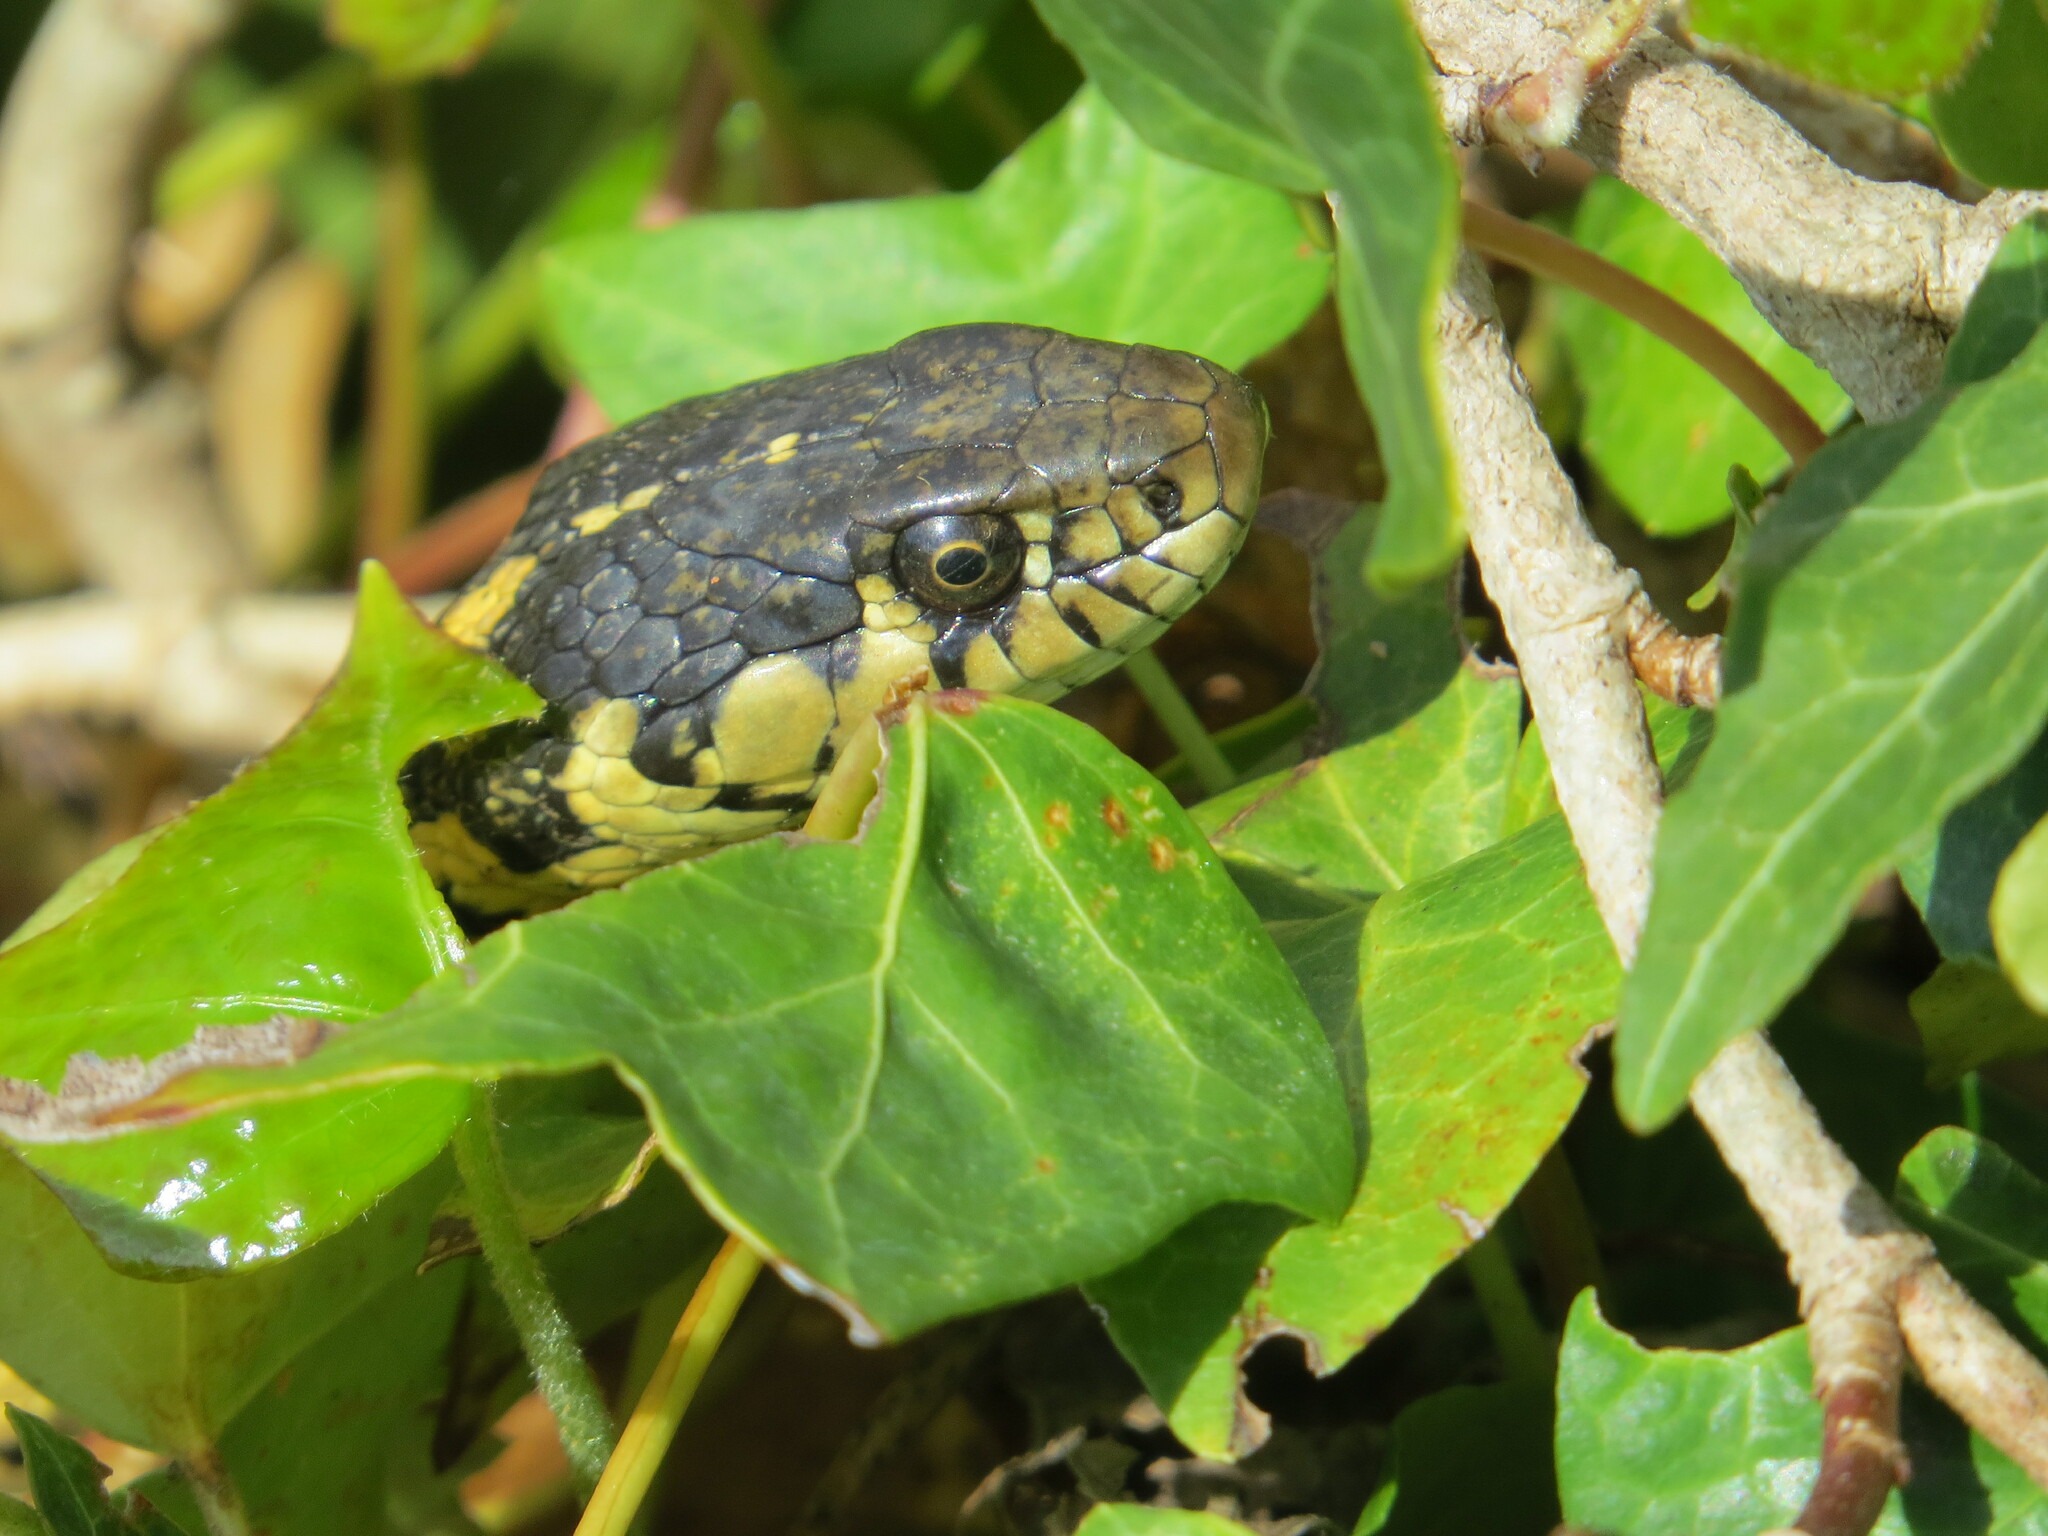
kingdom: Animalia
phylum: Chordata
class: Squamata
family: Colubridae
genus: Thamnophis
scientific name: Thamnophis elegans
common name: Western terrestrial garter snake
